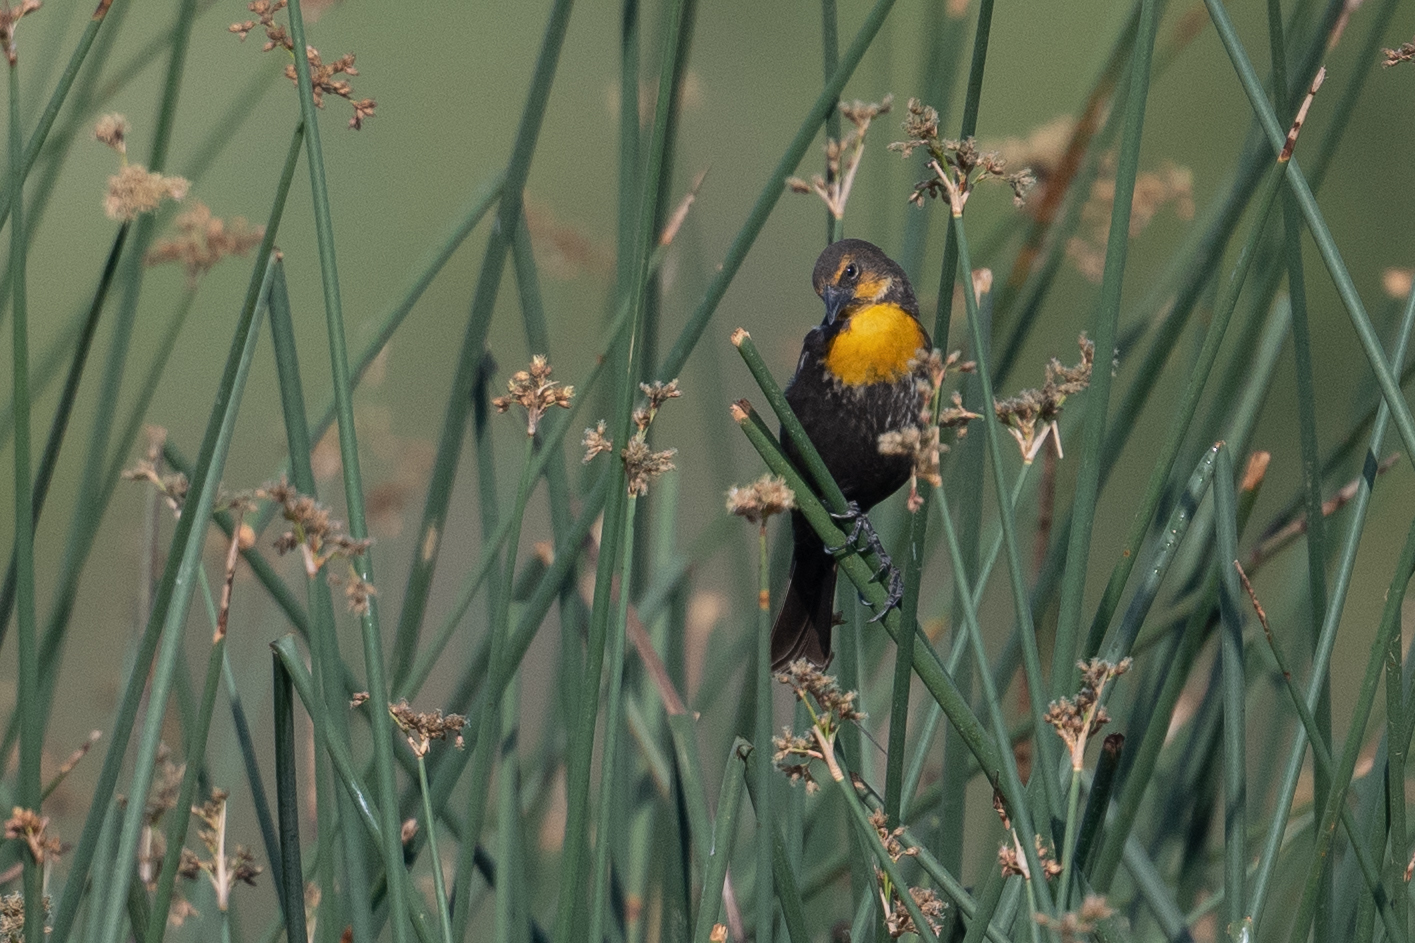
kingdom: Animalia
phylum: Chordata
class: Aves
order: Passeriformes
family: Icteridae
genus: Xanthocephalus
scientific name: Xanthocephalus xanthocephalus
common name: Yellow-headed blackbird
